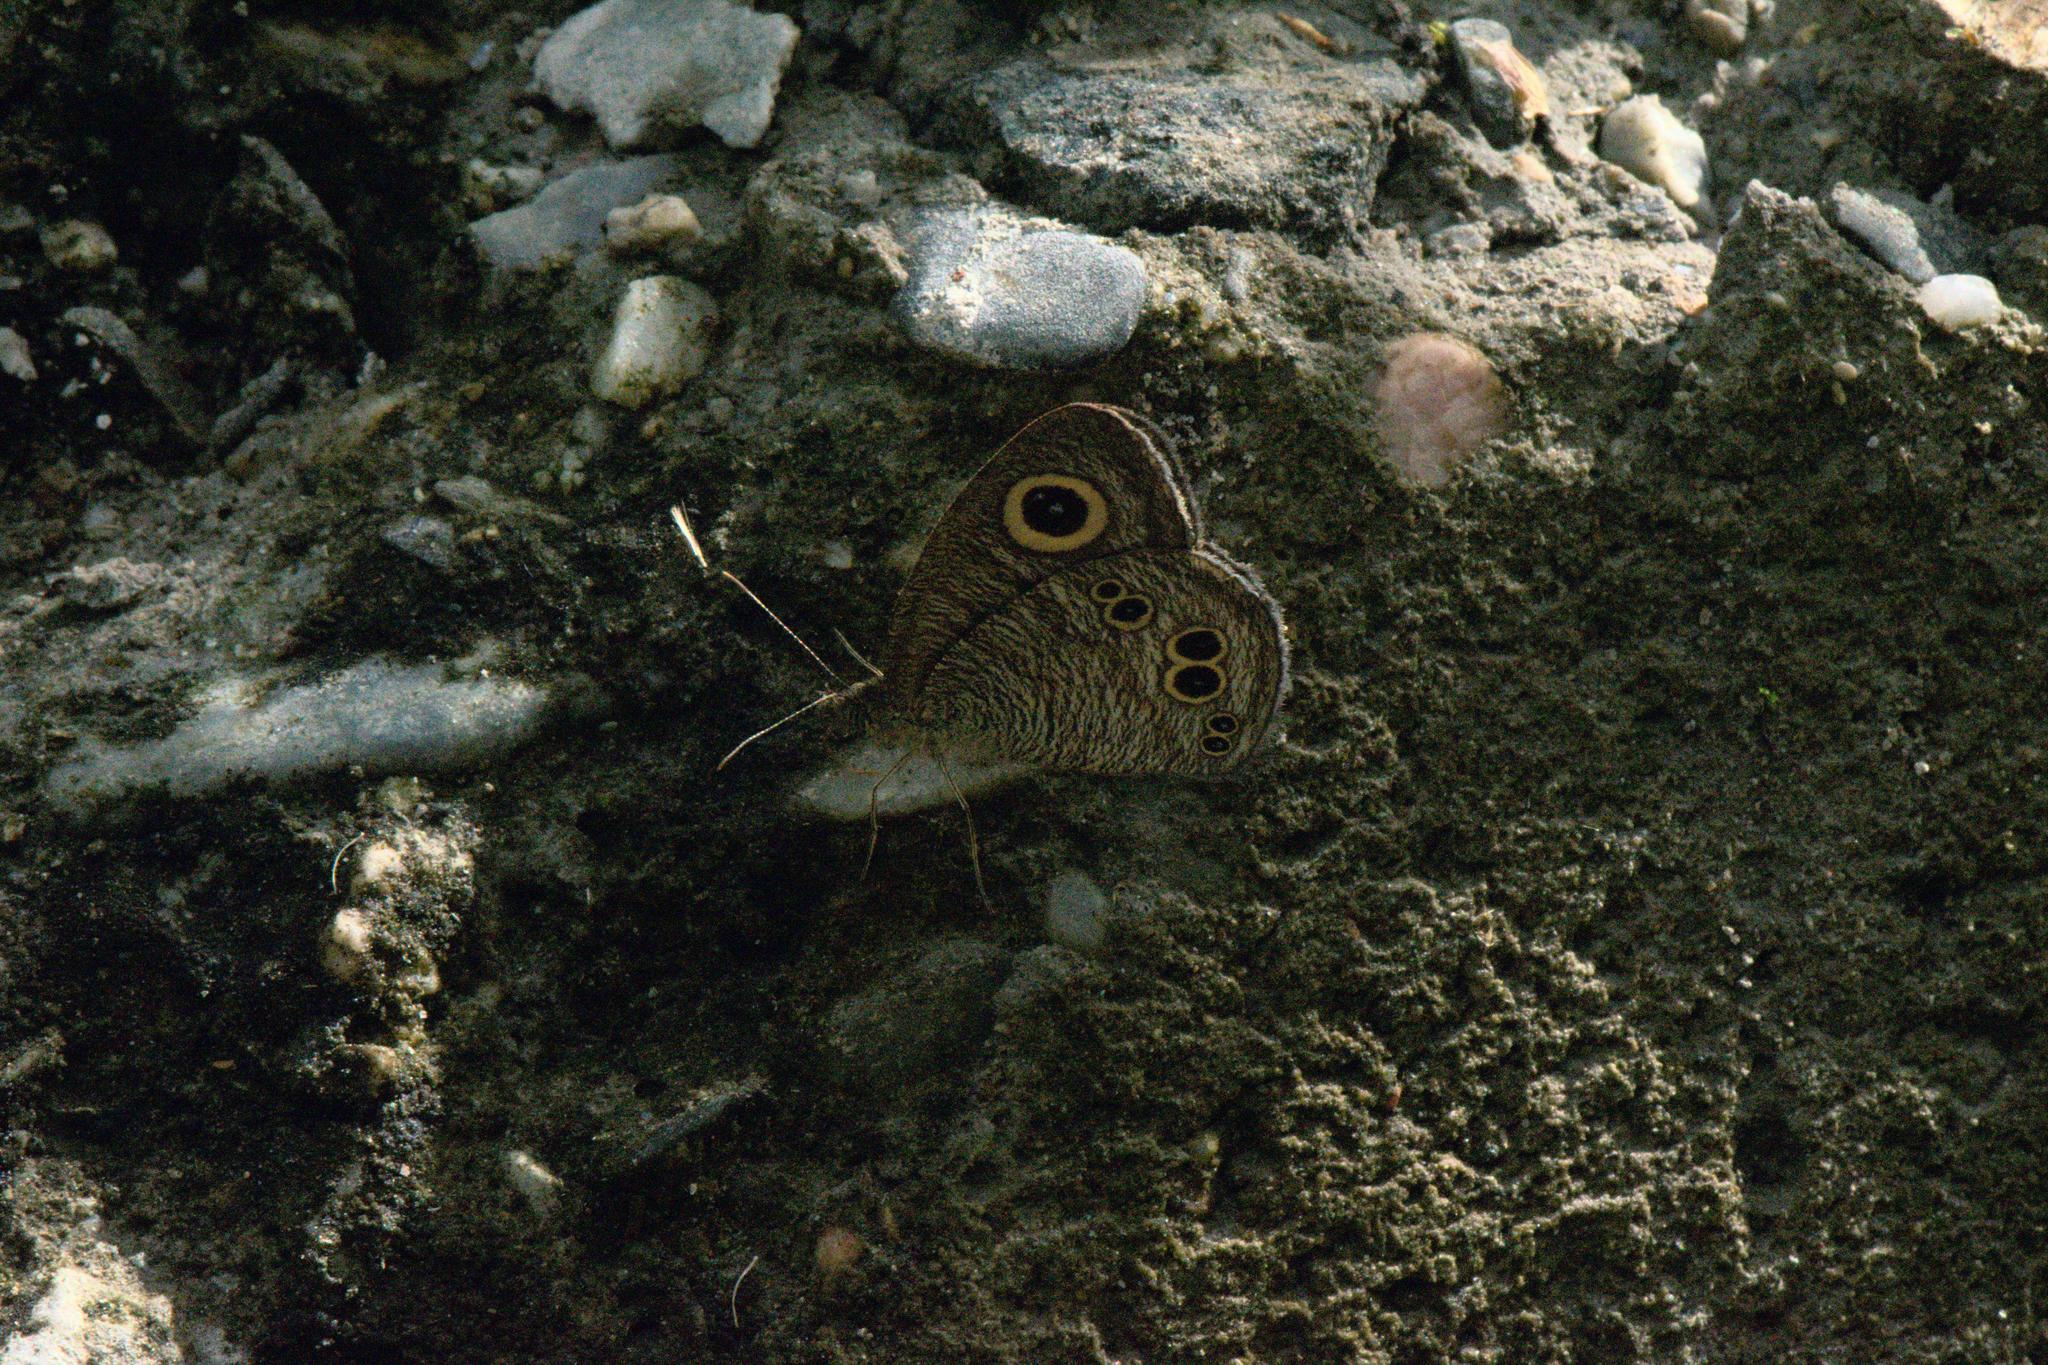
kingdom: Animalia
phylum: Arthropoda
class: Insecta
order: Lepidoptera
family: Nymphalidae
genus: Ypthima
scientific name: Ypthima baldus
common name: Common five-ring
